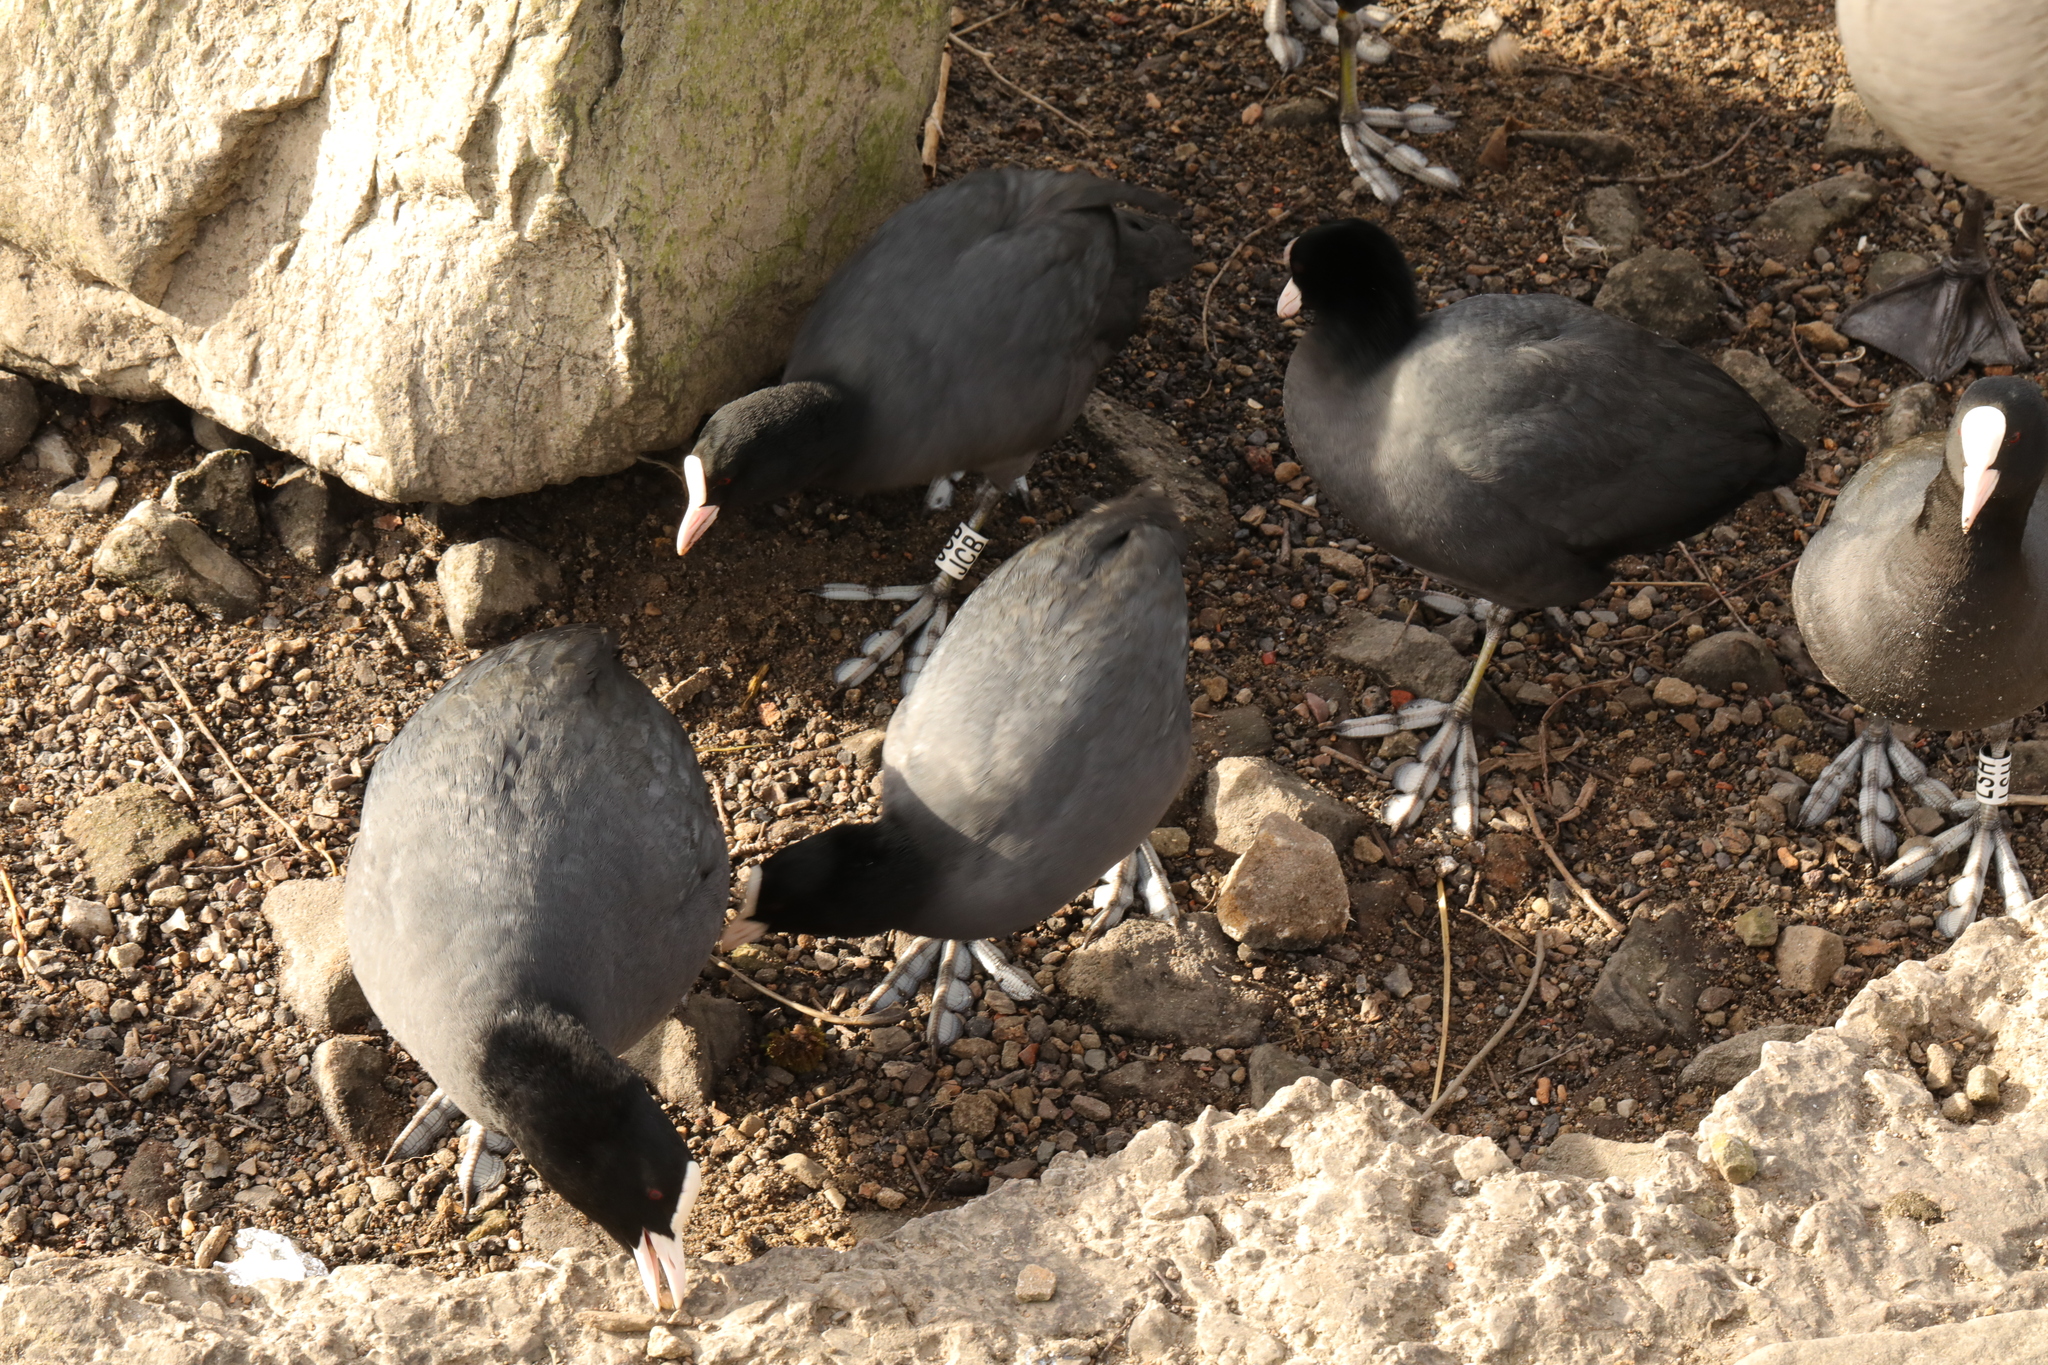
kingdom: Animalia
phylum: Chordata
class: Aves
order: Gruiformes
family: Rallidae
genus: Fulica
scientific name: Fulica atra
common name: Eurasian coot
